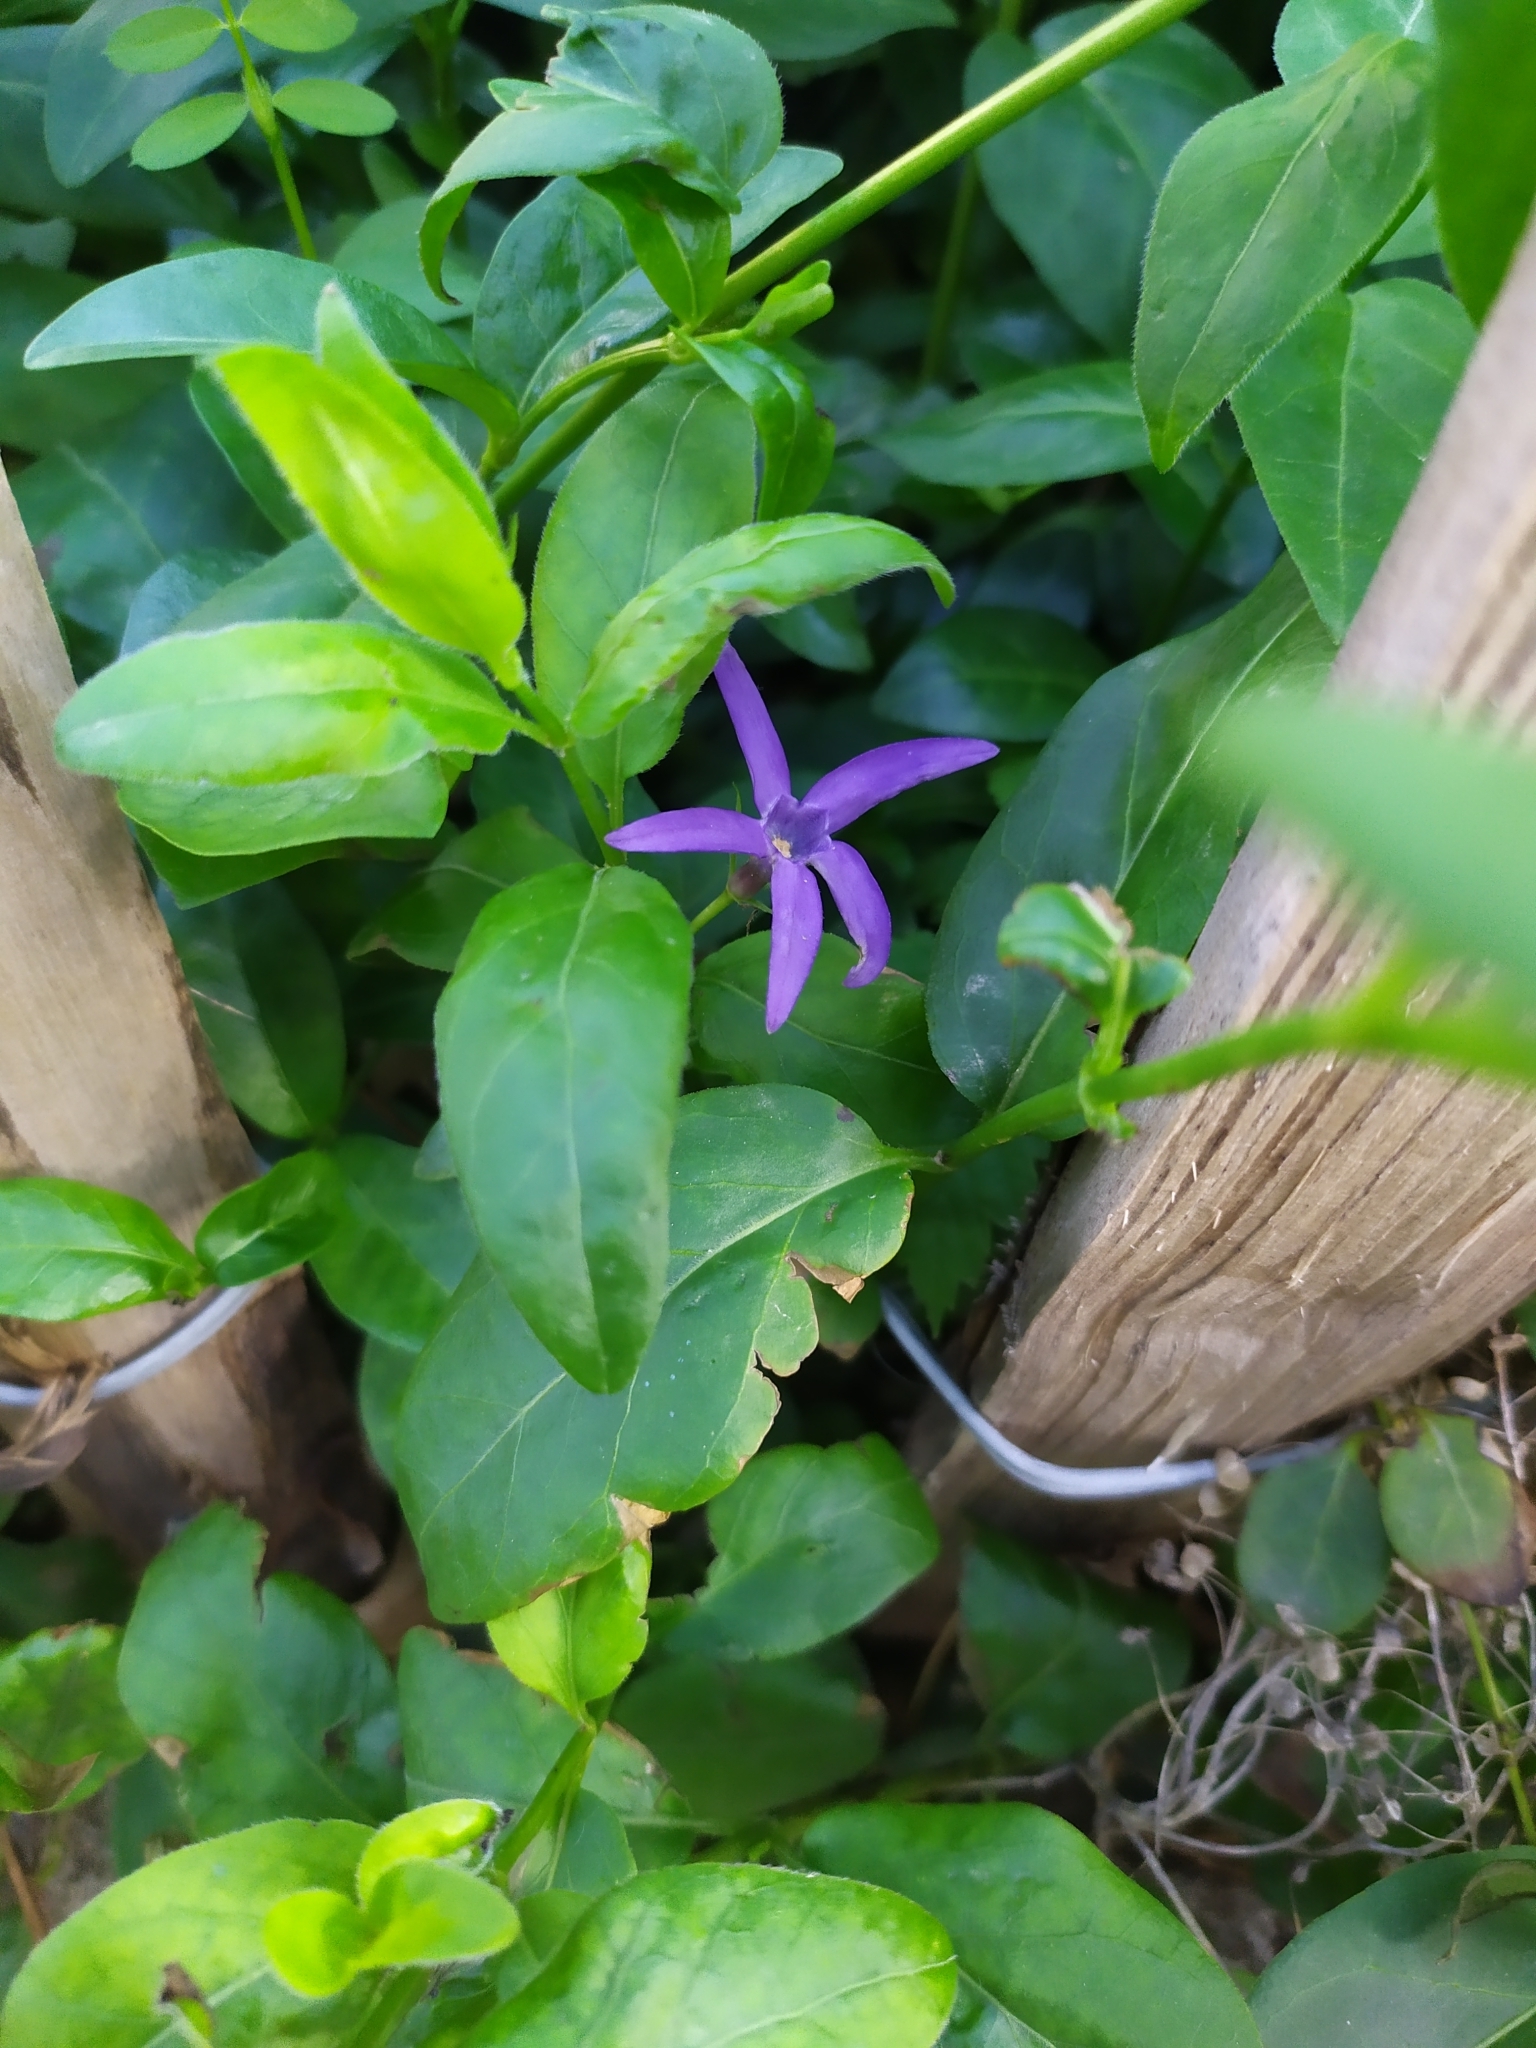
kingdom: Plantae
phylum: Tracheophyta
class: Magnoliopsida
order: Gentianales
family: Apocynaceae
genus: Vinca
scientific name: Vinca major
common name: Greater periwinkle
